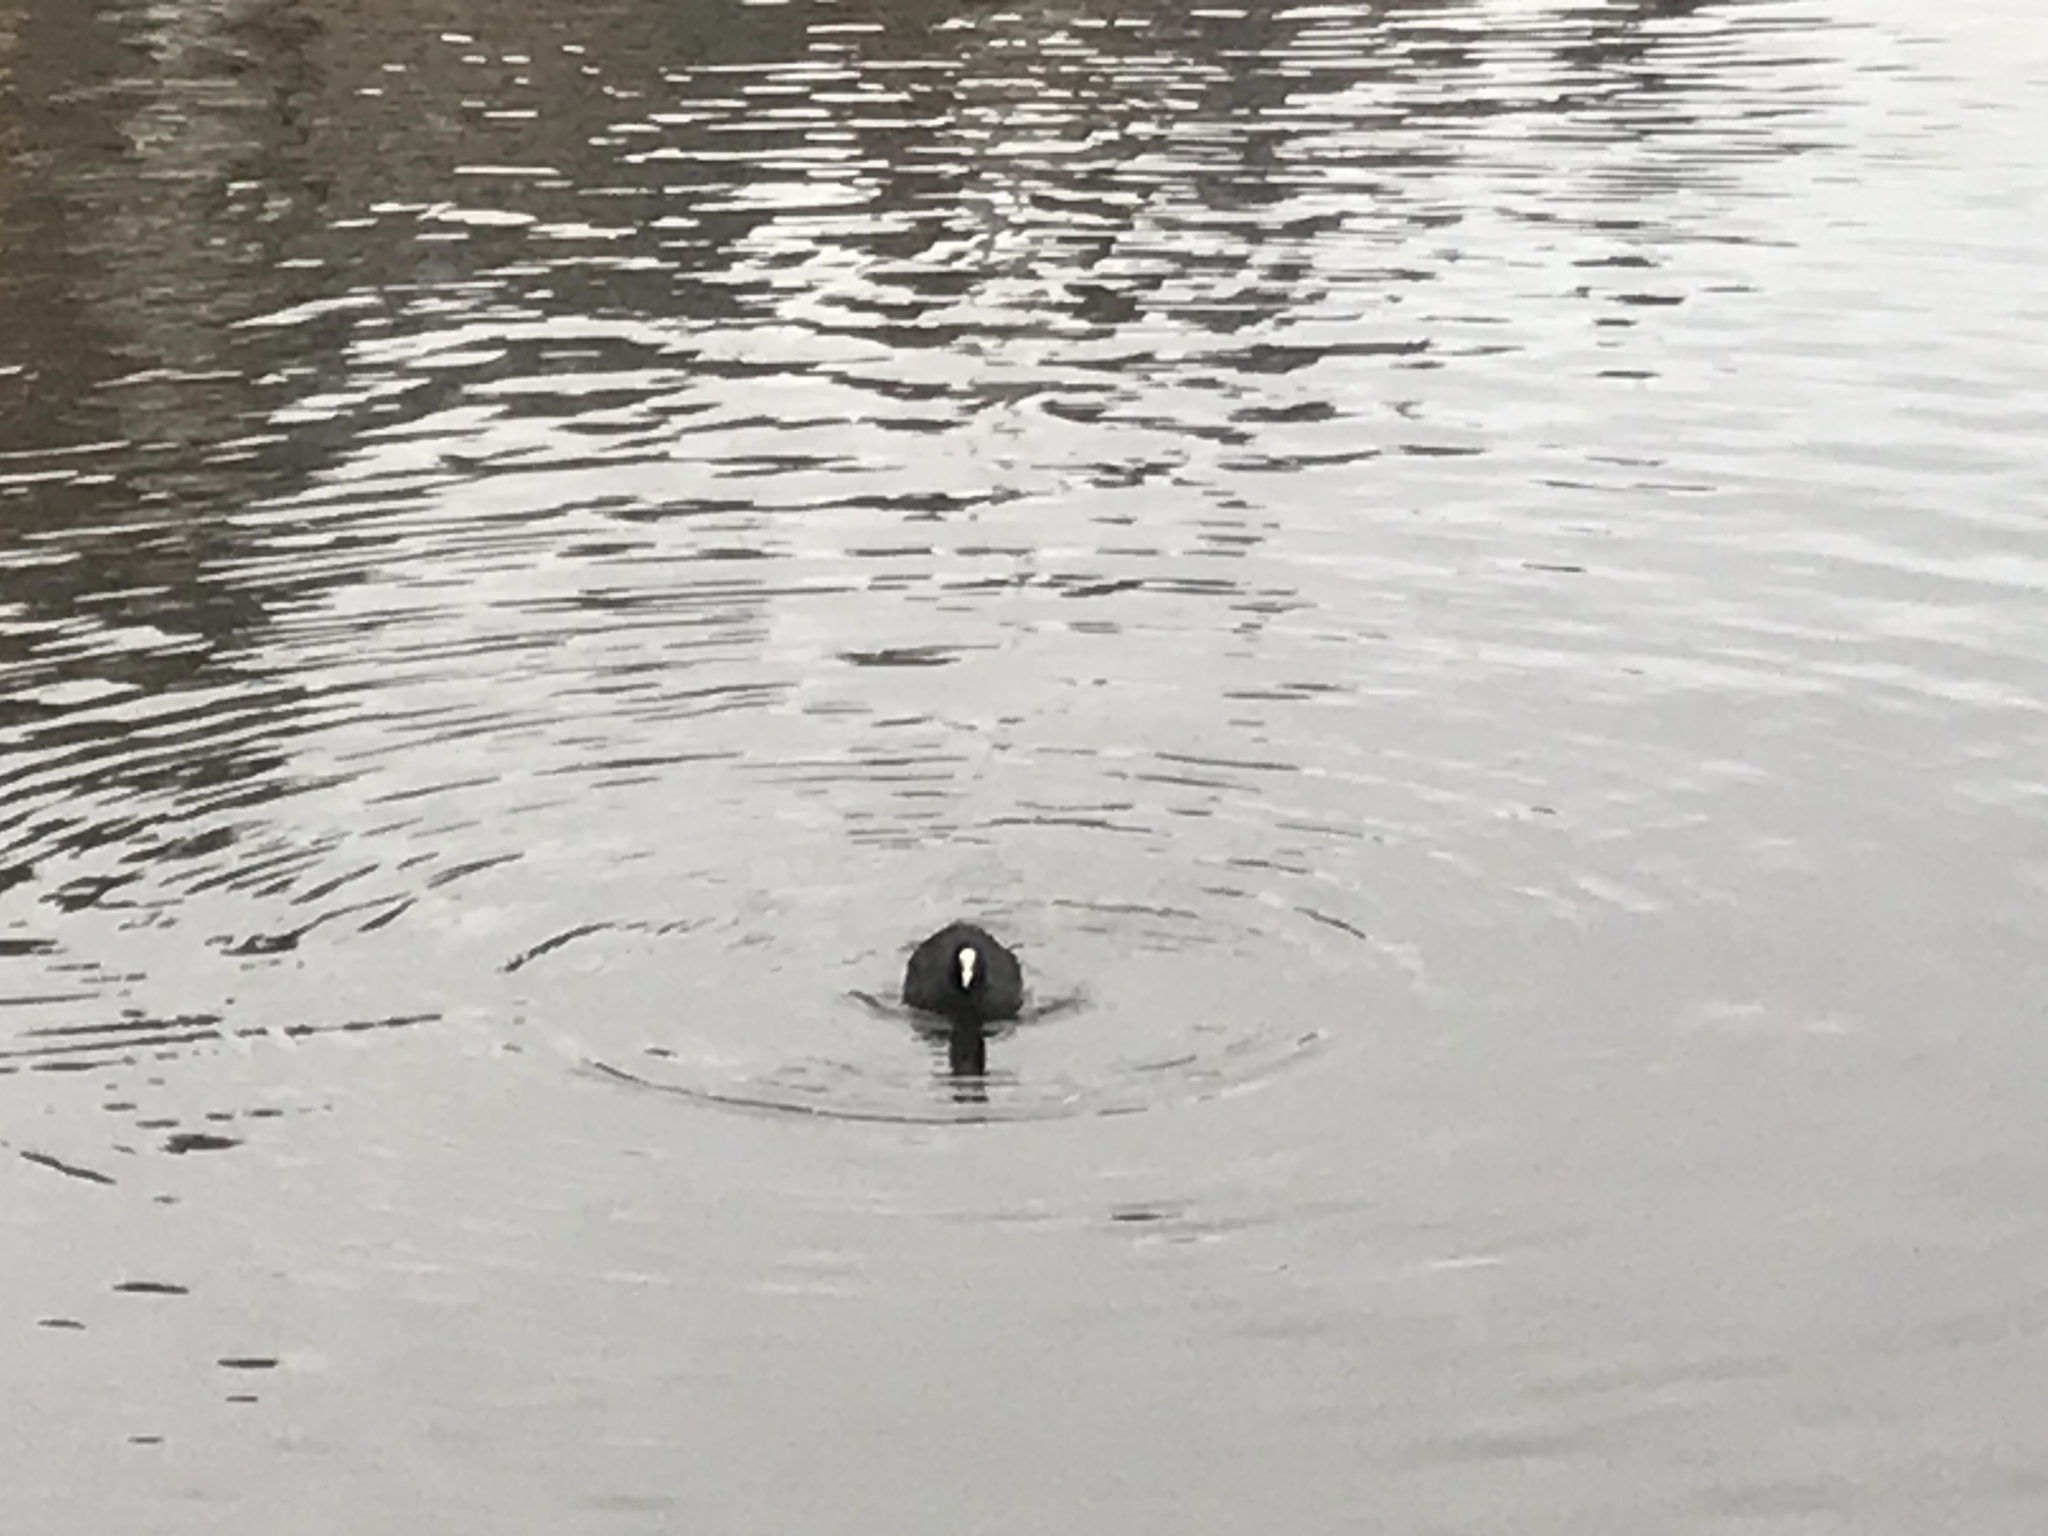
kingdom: Animalia
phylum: Chordata
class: Aves
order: Gruiformes
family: Rallidae
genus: Fulica
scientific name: Fulica atra
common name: Eurasian coot
